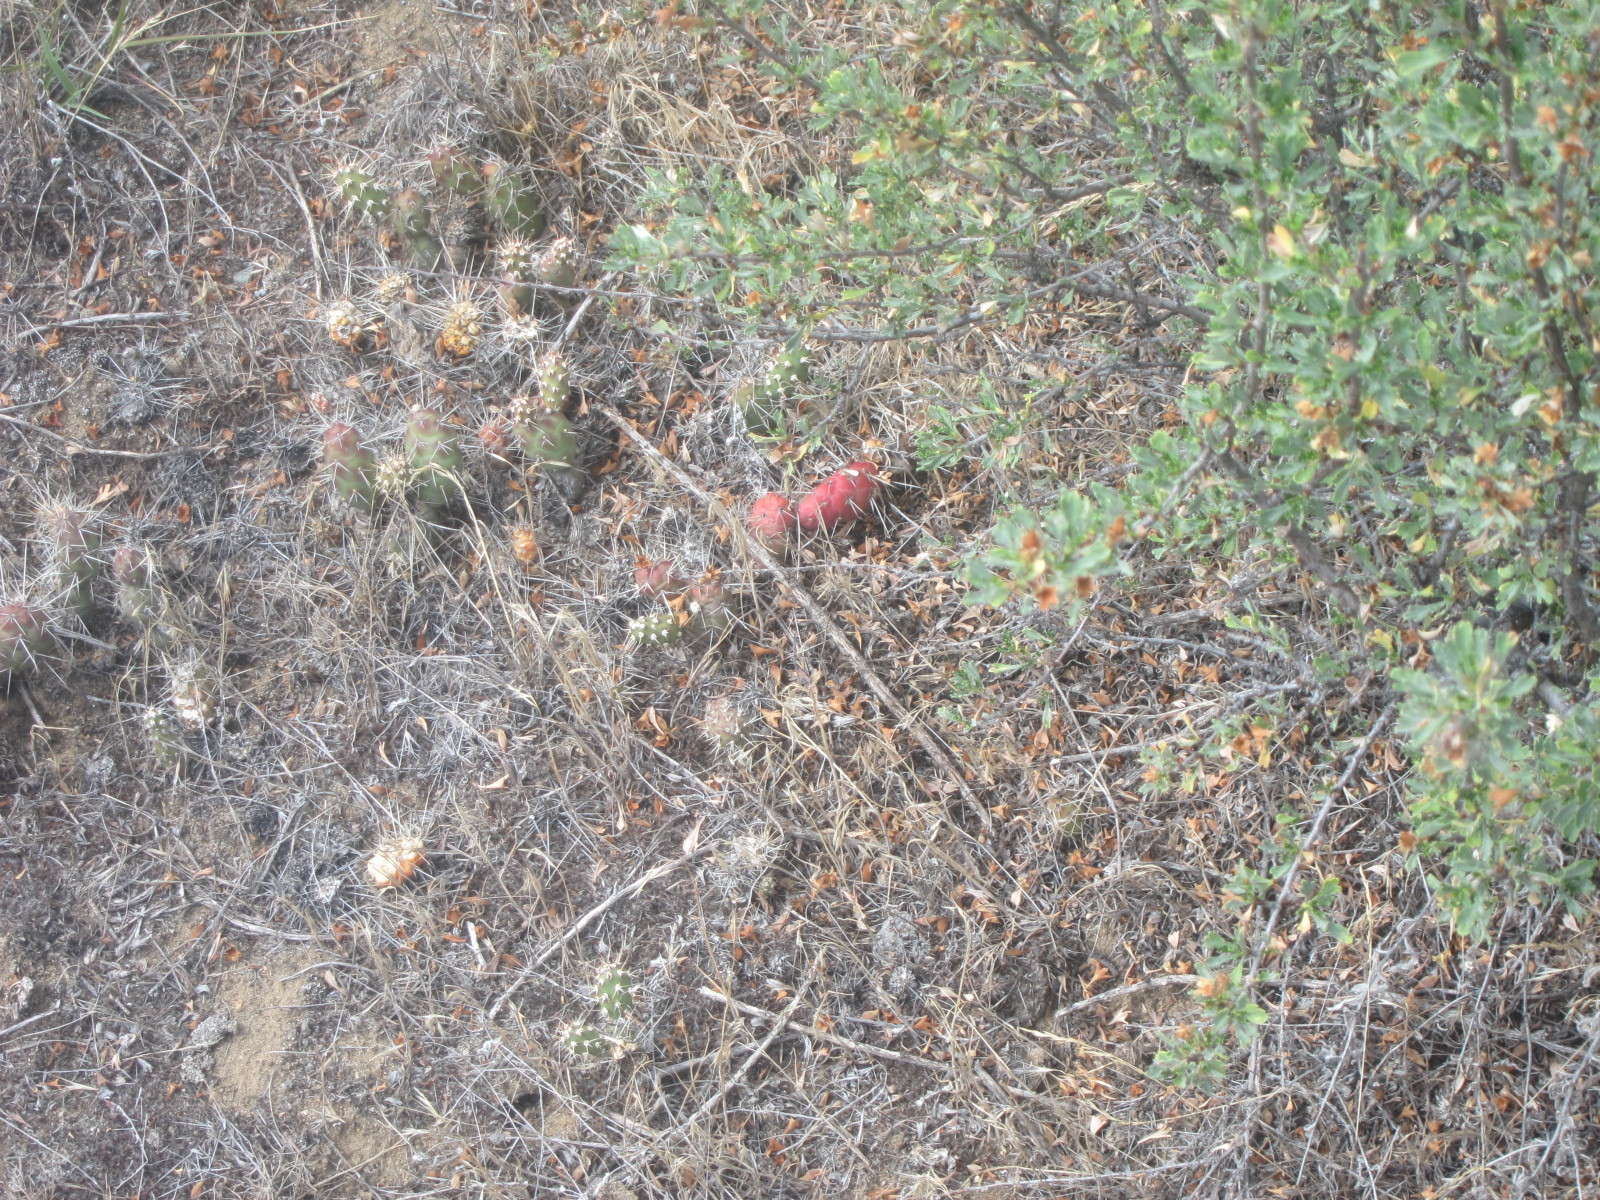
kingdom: Plantae
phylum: Tracheophyta
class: Magnoliopsida
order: Caryophyllales
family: Cactaceae
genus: Opuntia
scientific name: Opuntia fragilis
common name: Brittle cactus
